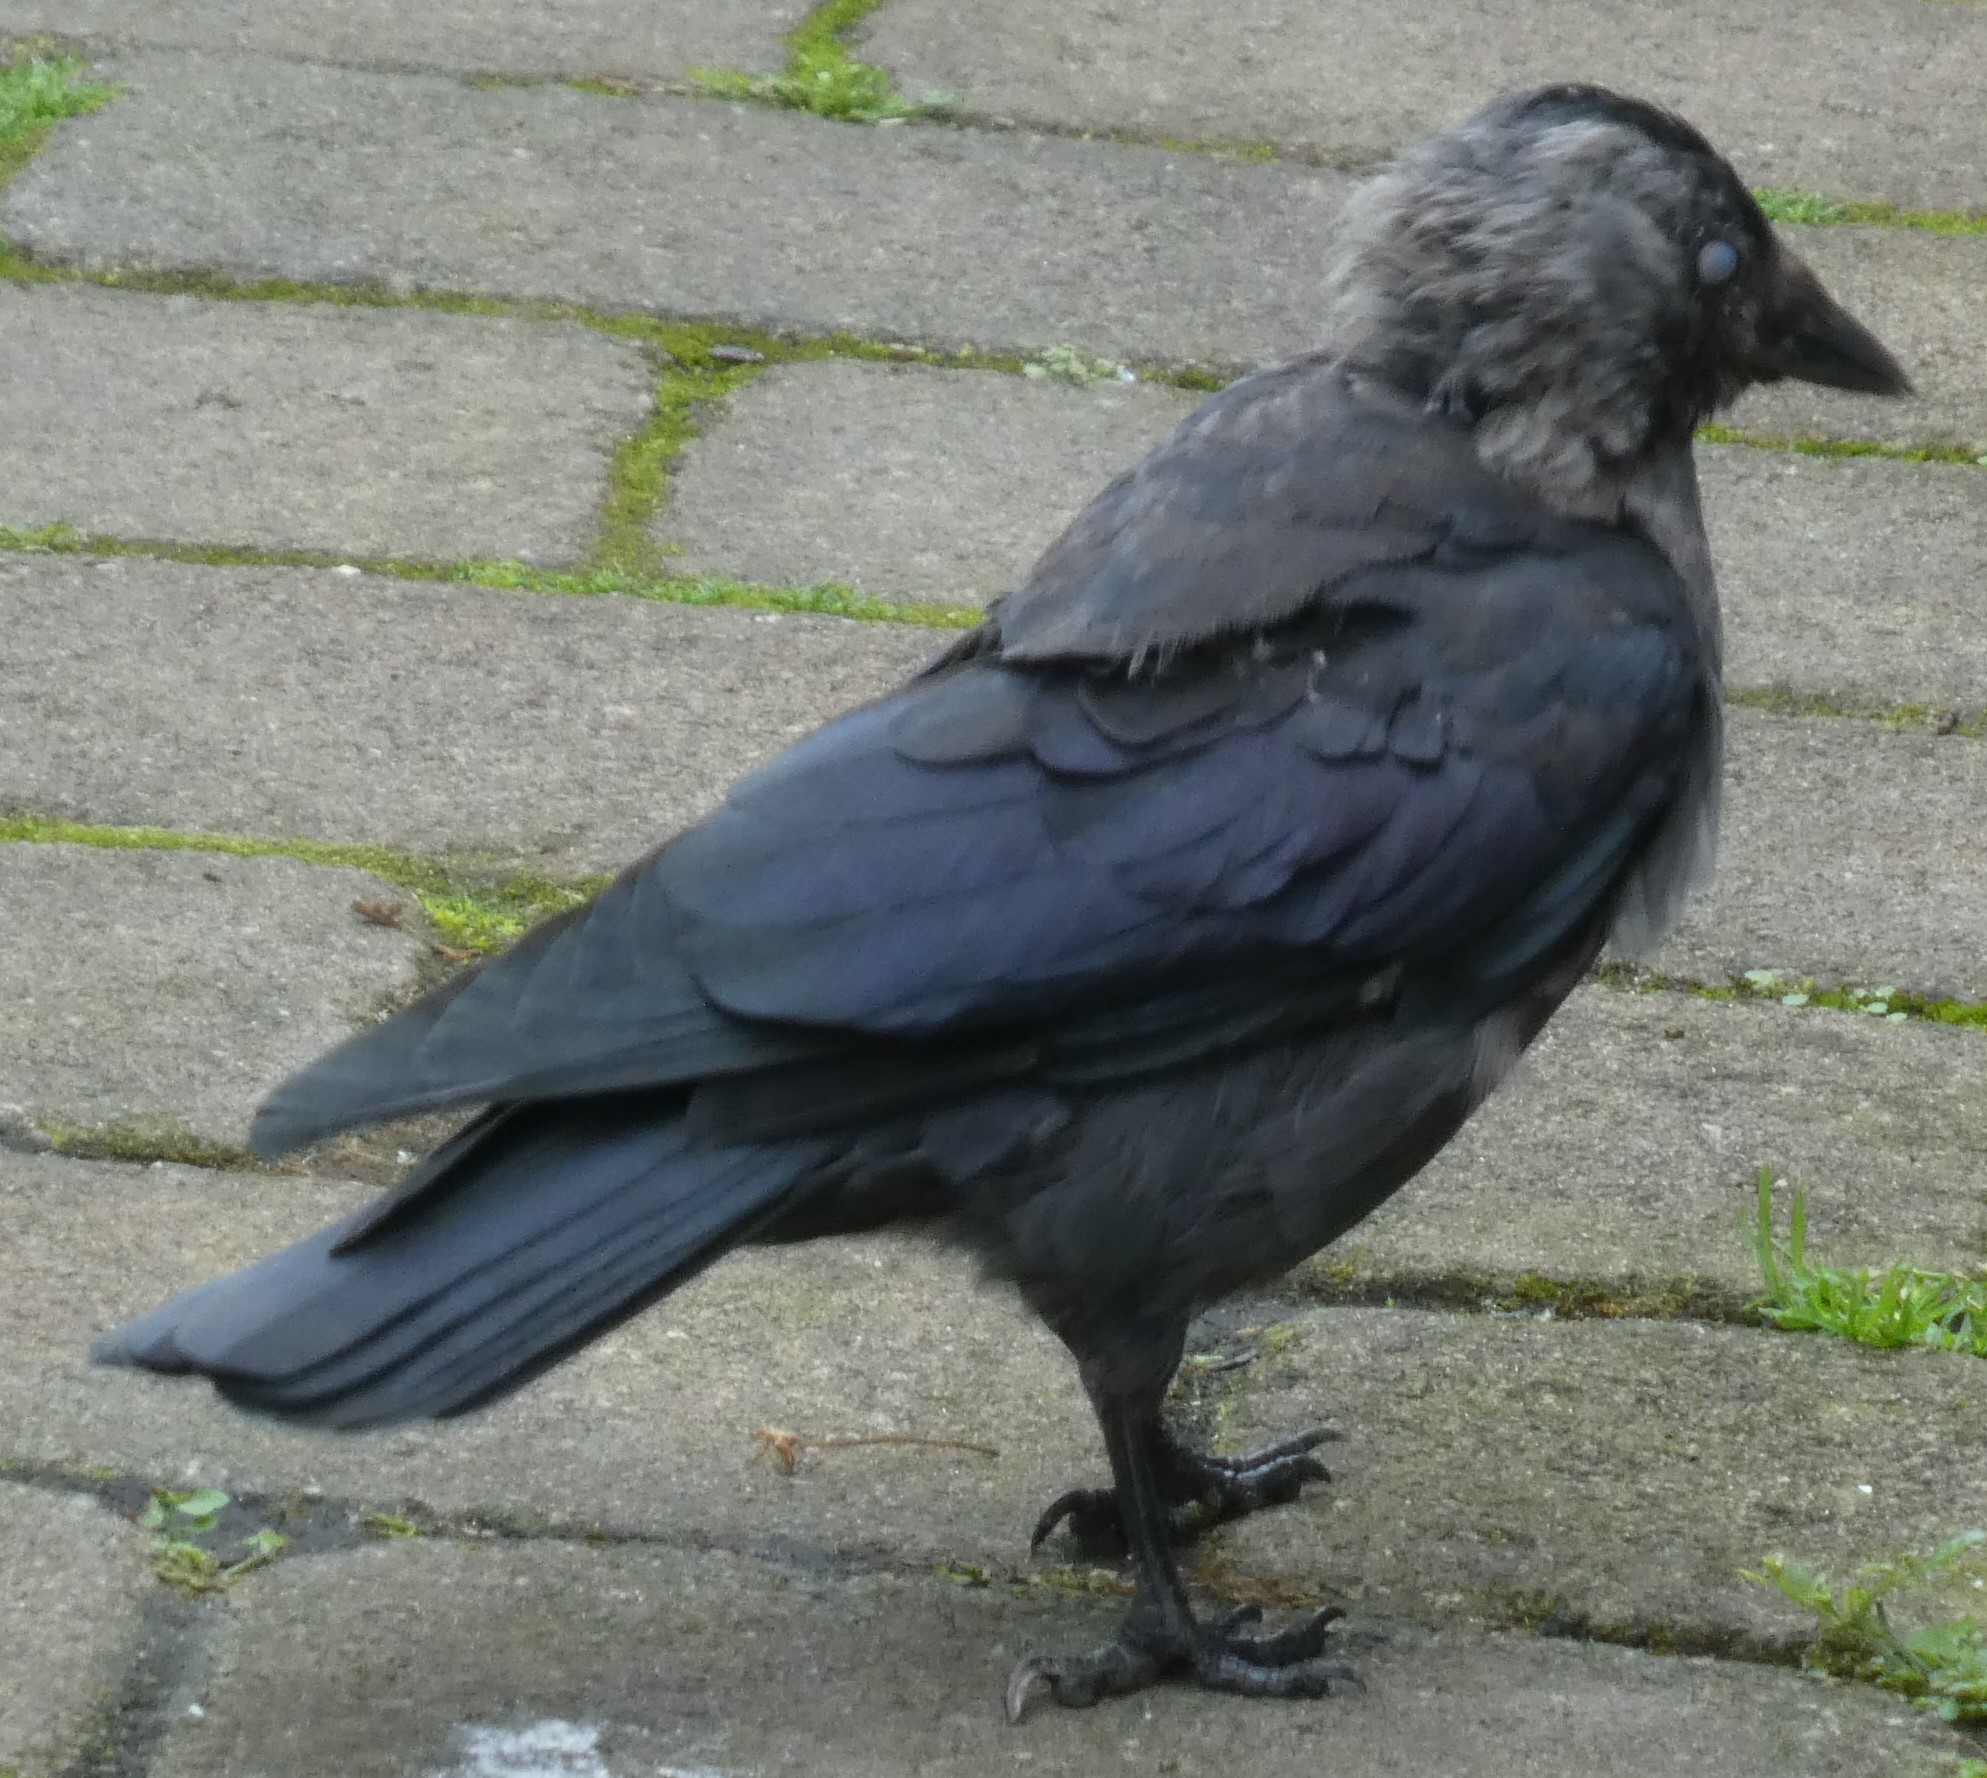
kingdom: Animalia
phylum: Chordata
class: Aves
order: Passeriformes
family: Corvidae
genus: Coloeus
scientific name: Coloeus monedula
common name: Western jackdaw
